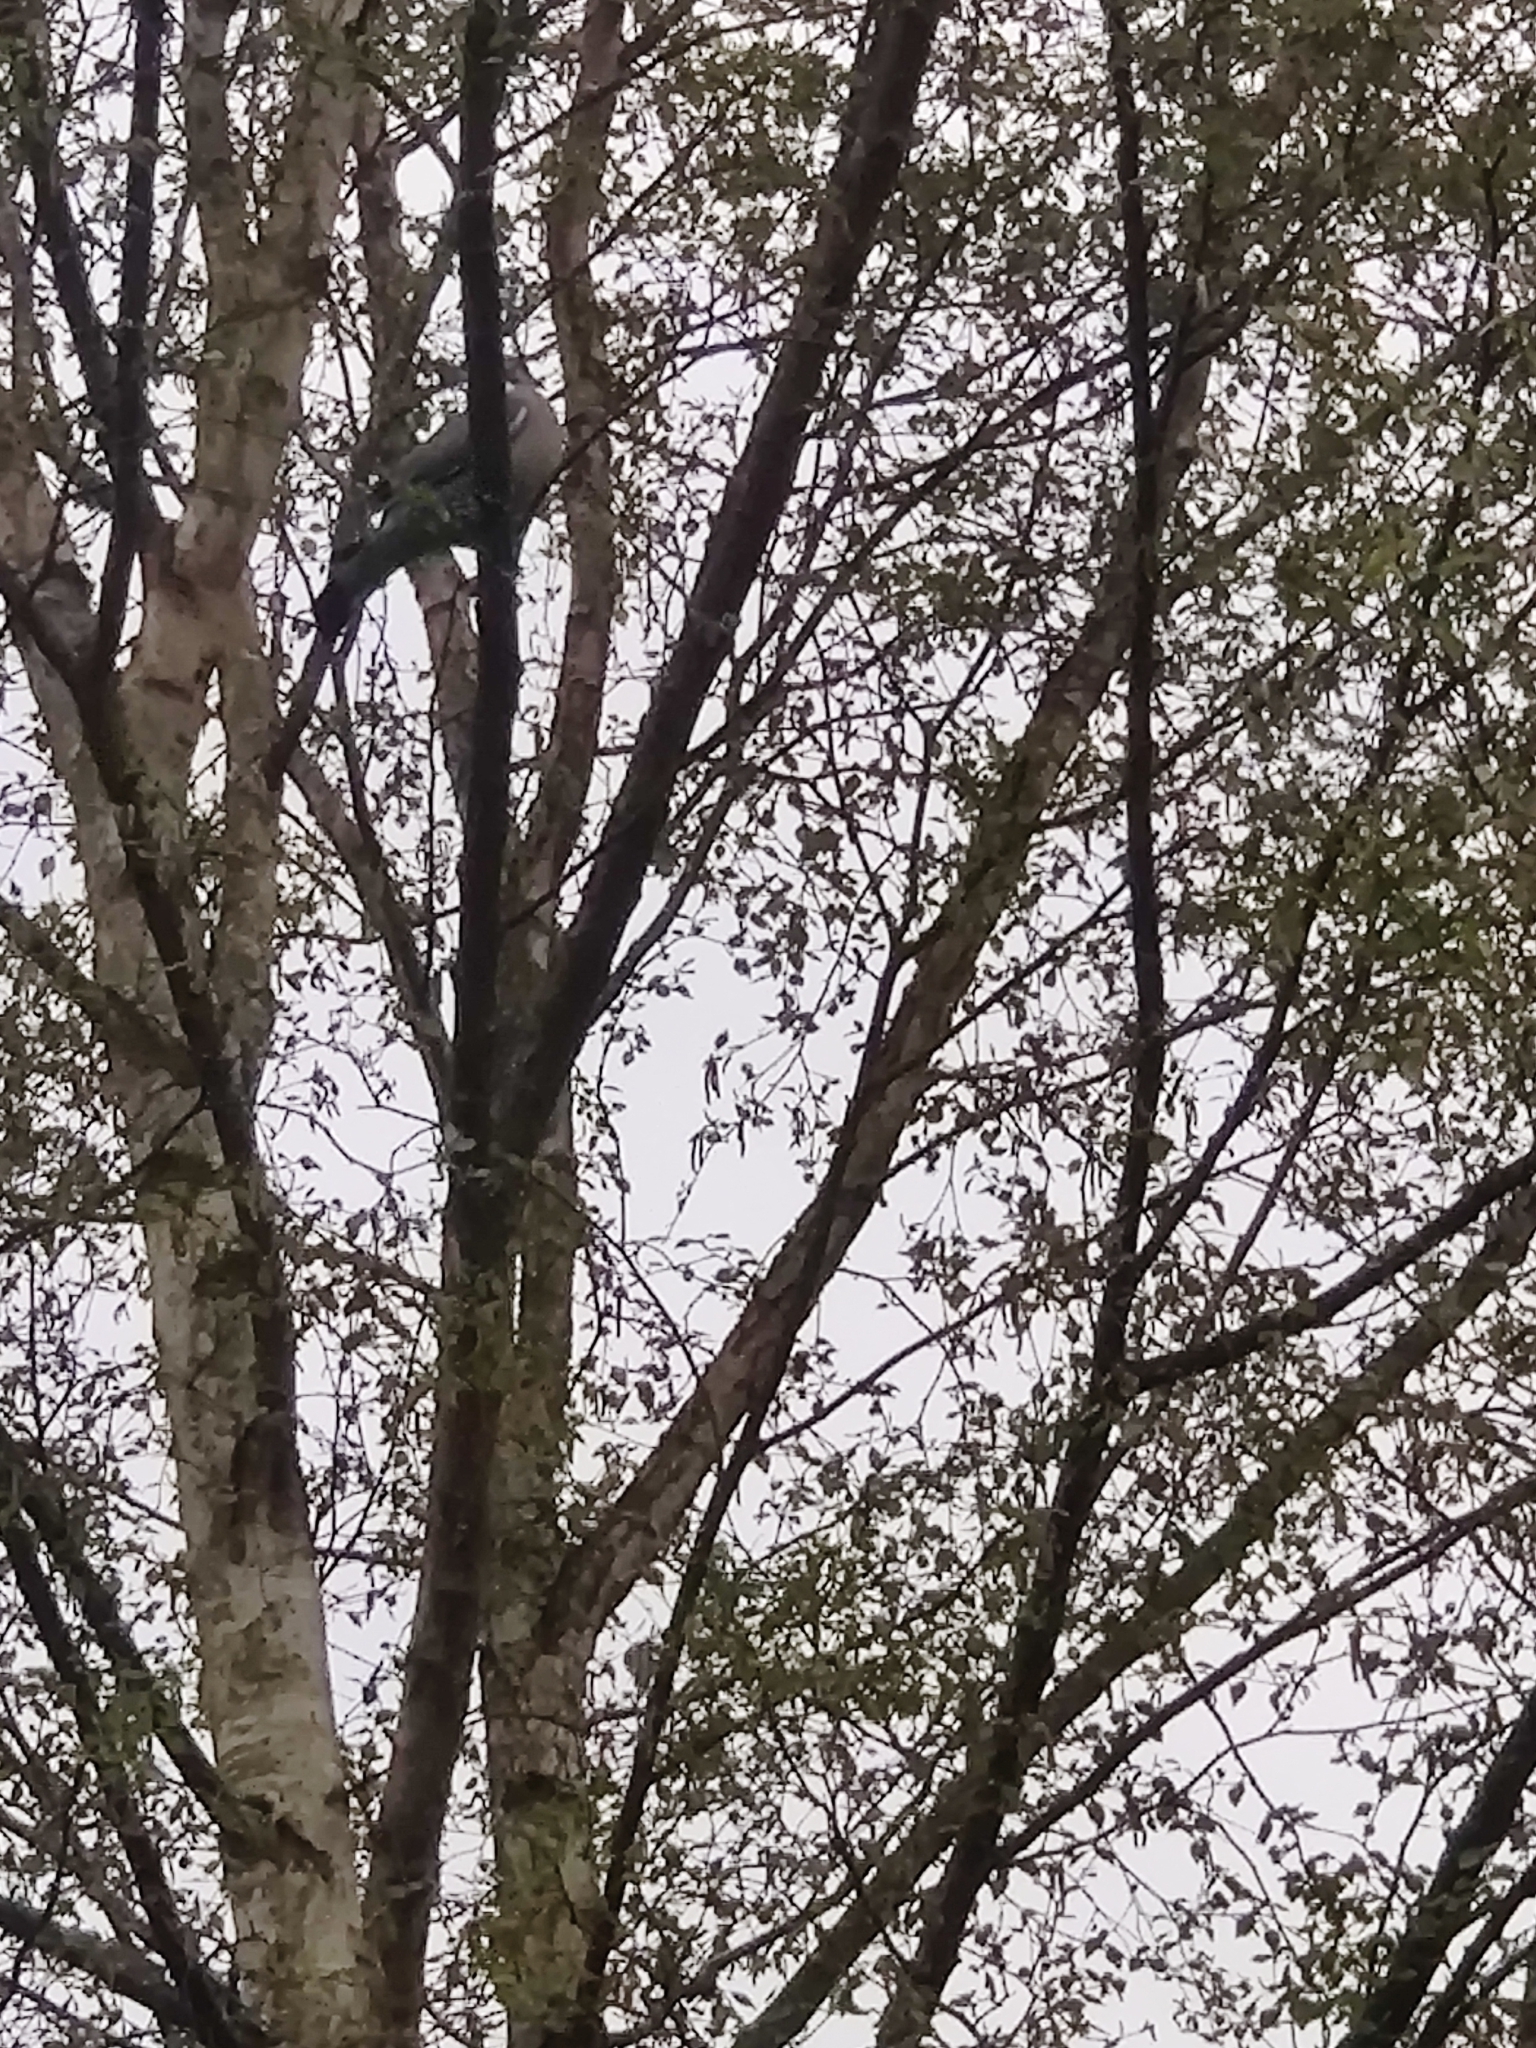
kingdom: Animalia
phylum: Chordata
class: Aves
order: Columbiformes
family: Columbidae
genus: Columba
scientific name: Columba palumbus
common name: Common wood pigeon
